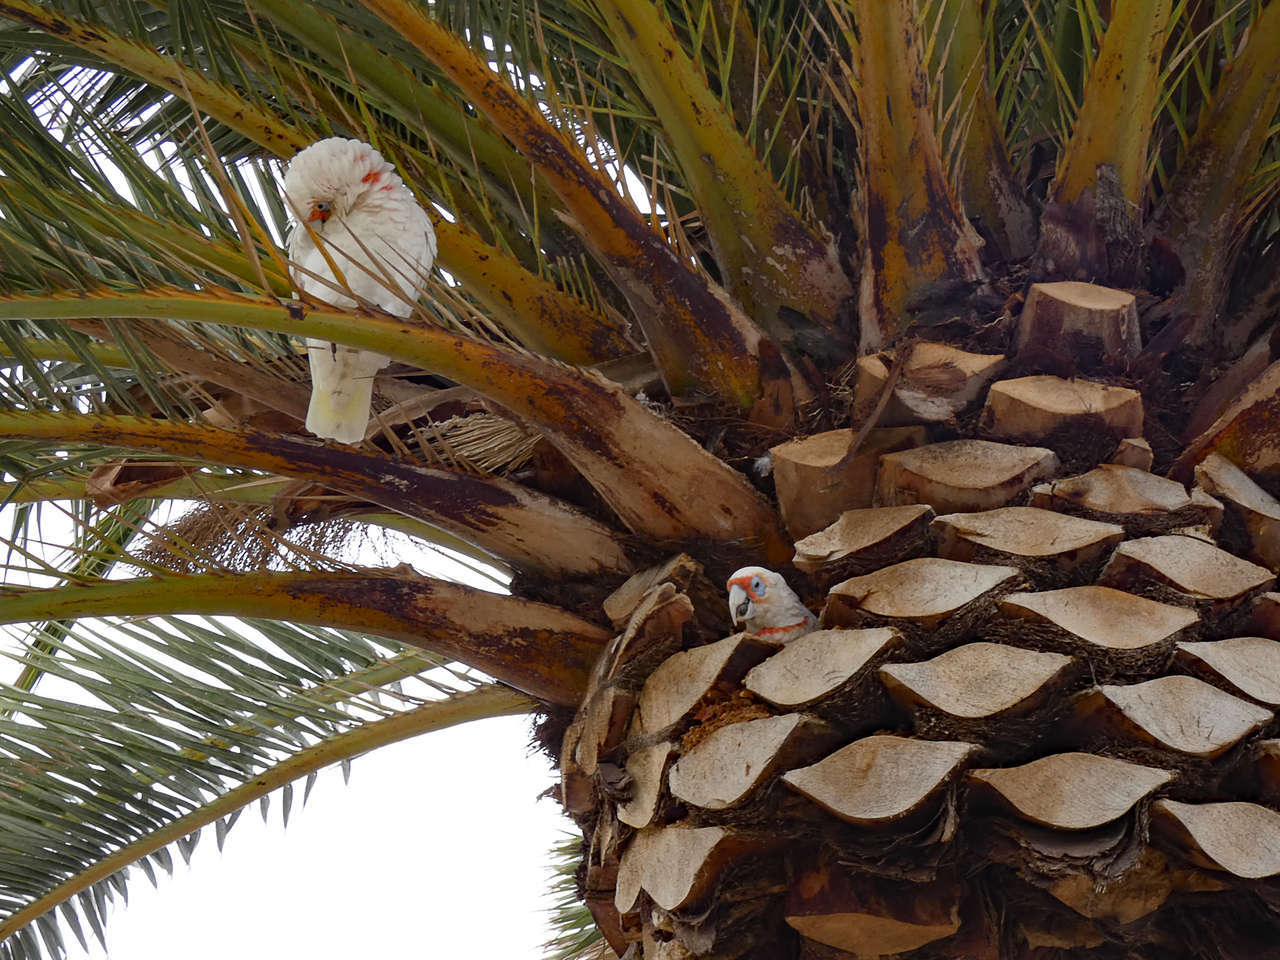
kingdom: Animalia
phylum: Chordata
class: Aves
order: Psittaciformes
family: Psittacidae
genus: Cacatua
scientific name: Cacatua tenuirostris
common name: Long-billed corella
